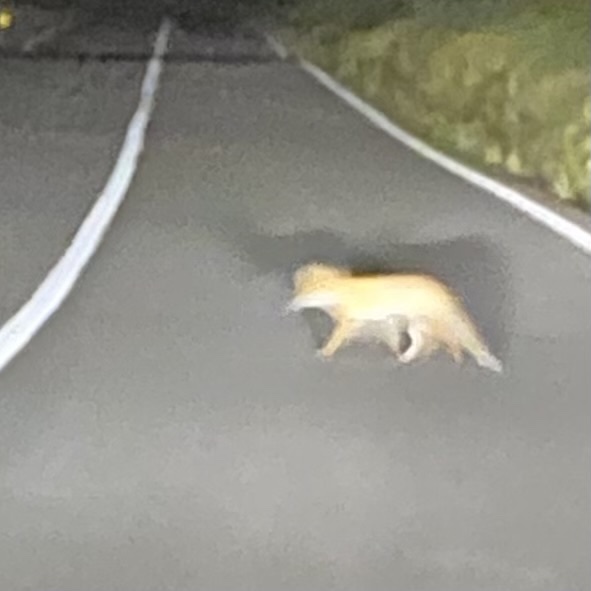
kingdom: Animalia
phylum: Chordata
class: Mammalia
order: Carnivora
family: Canidae
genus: Vulpes
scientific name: Vulpes vulpes
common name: Red fox
